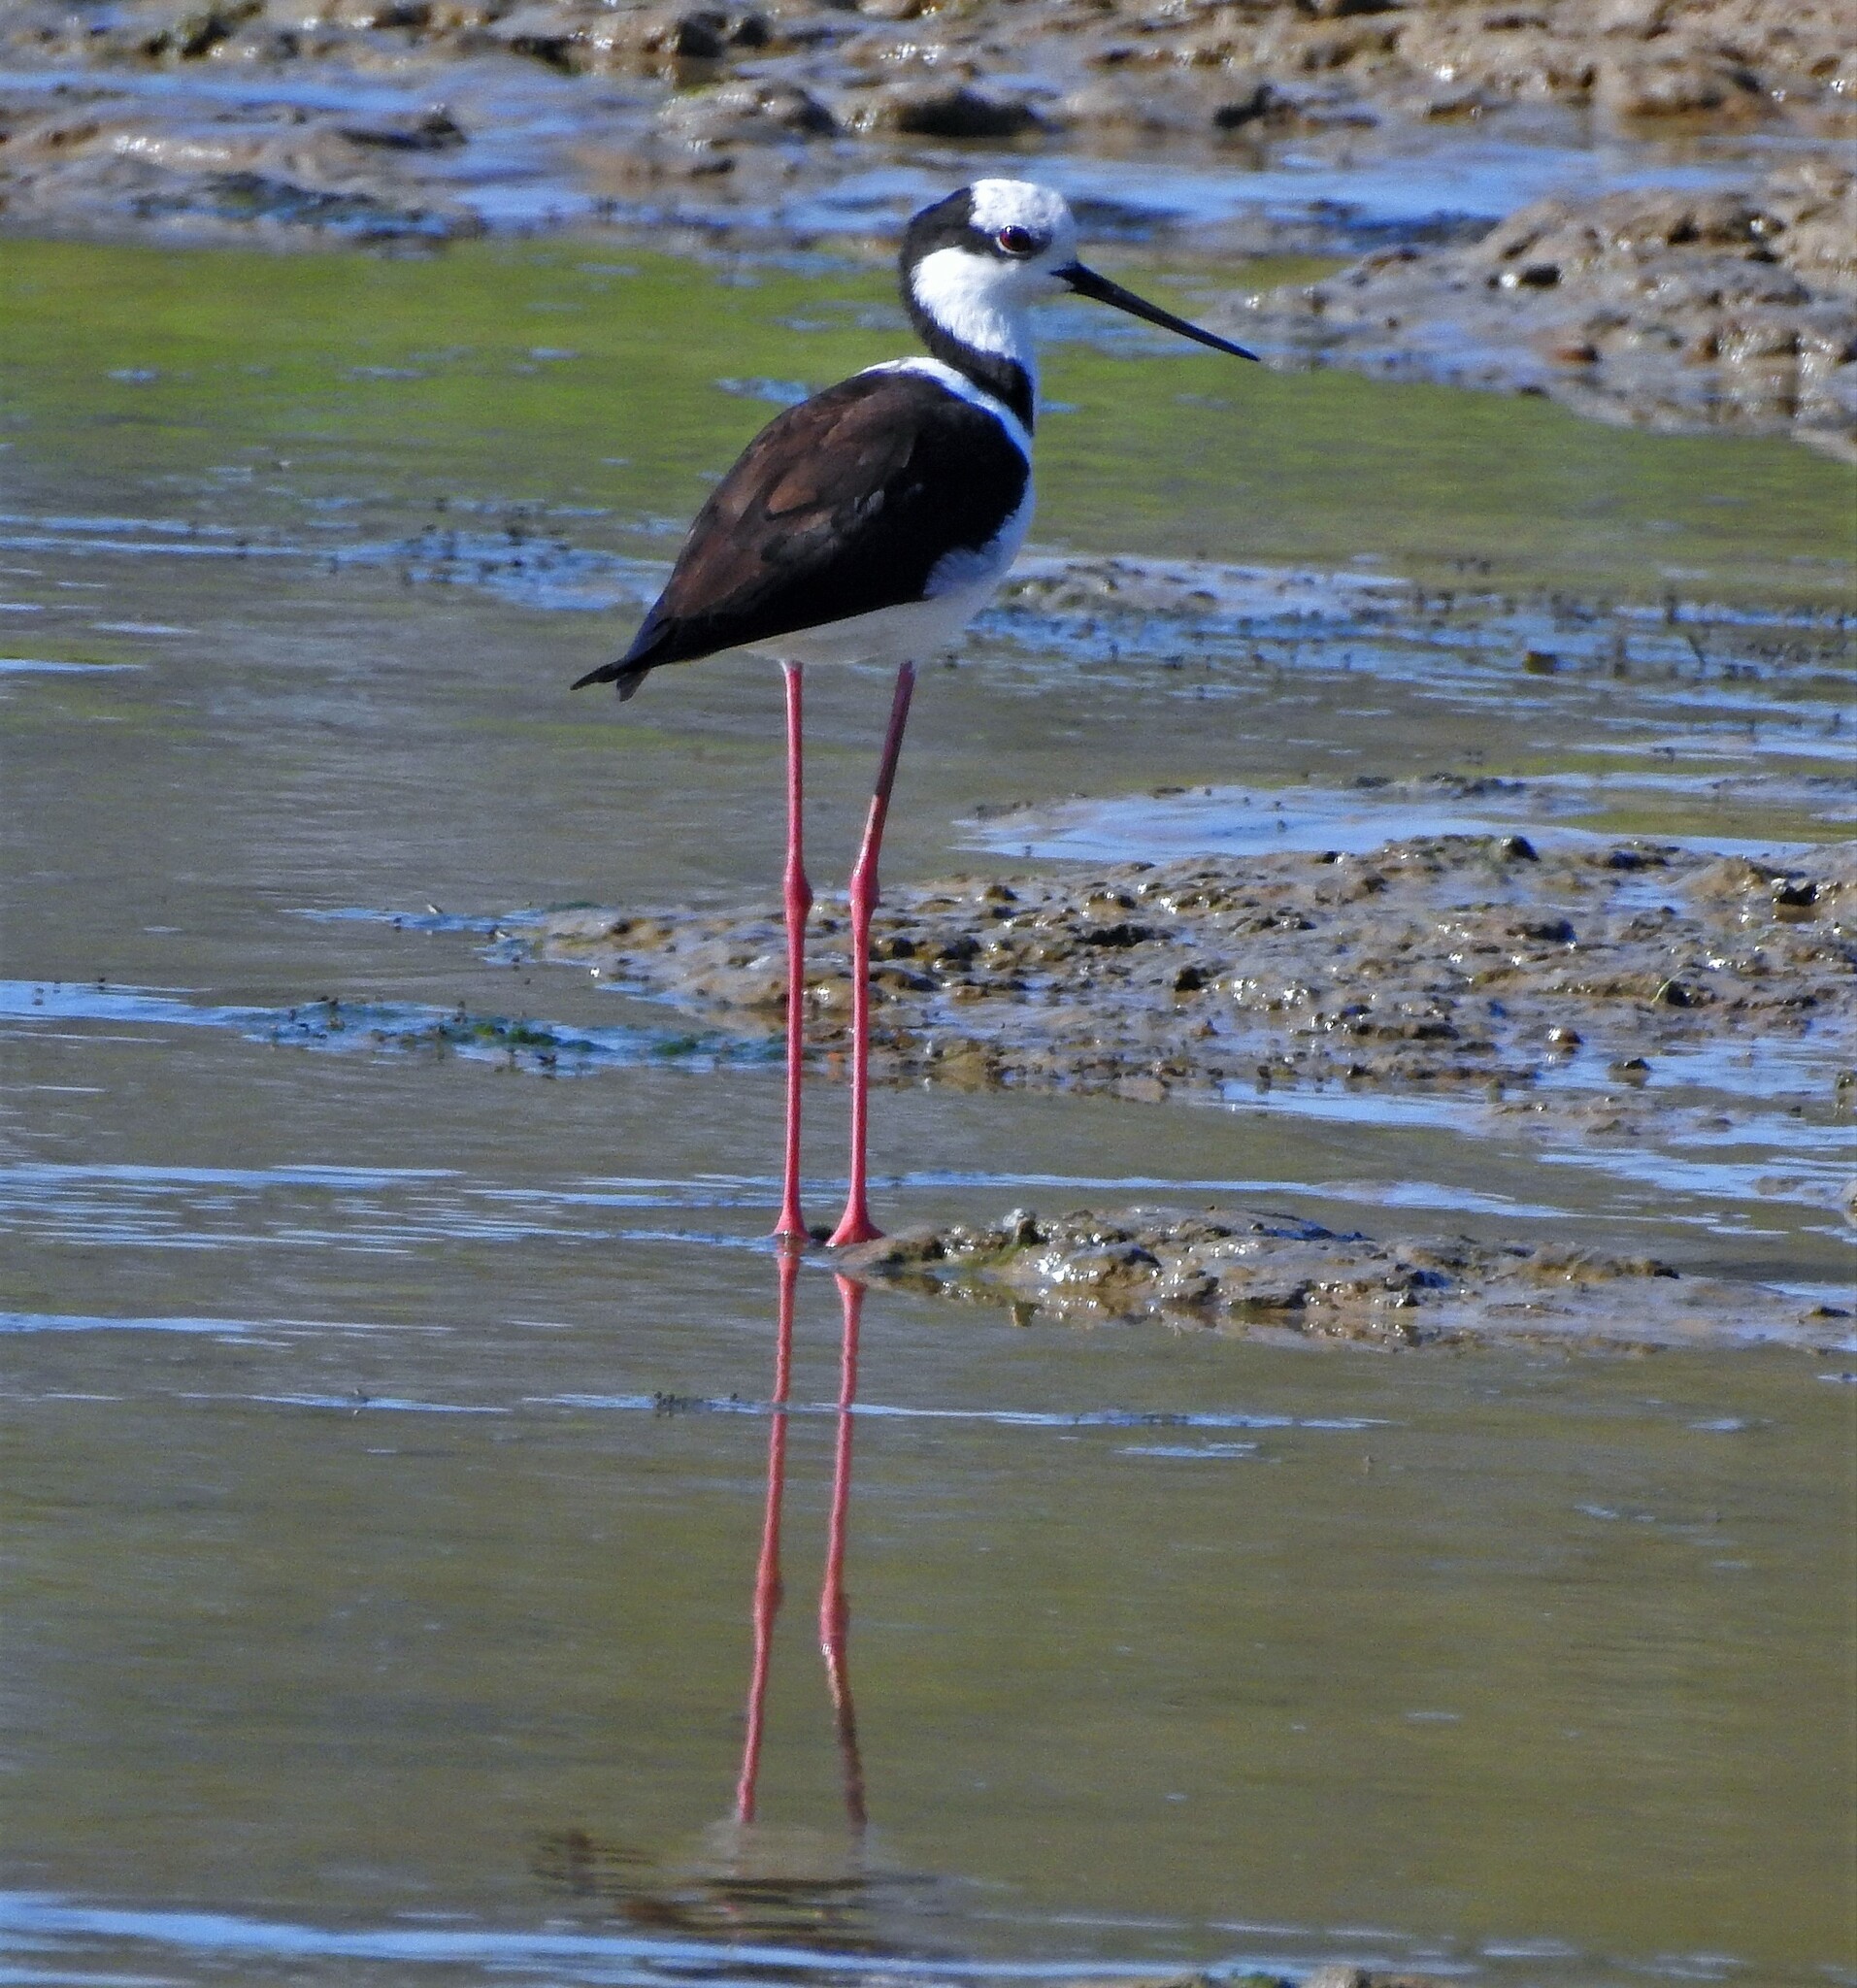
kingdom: Animalia
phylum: Chordata
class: Aves
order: Charadriiformes
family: Recurvirostridae
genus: Himantopus
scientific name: Himantopus mexicanus
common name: Black-necked stilt
